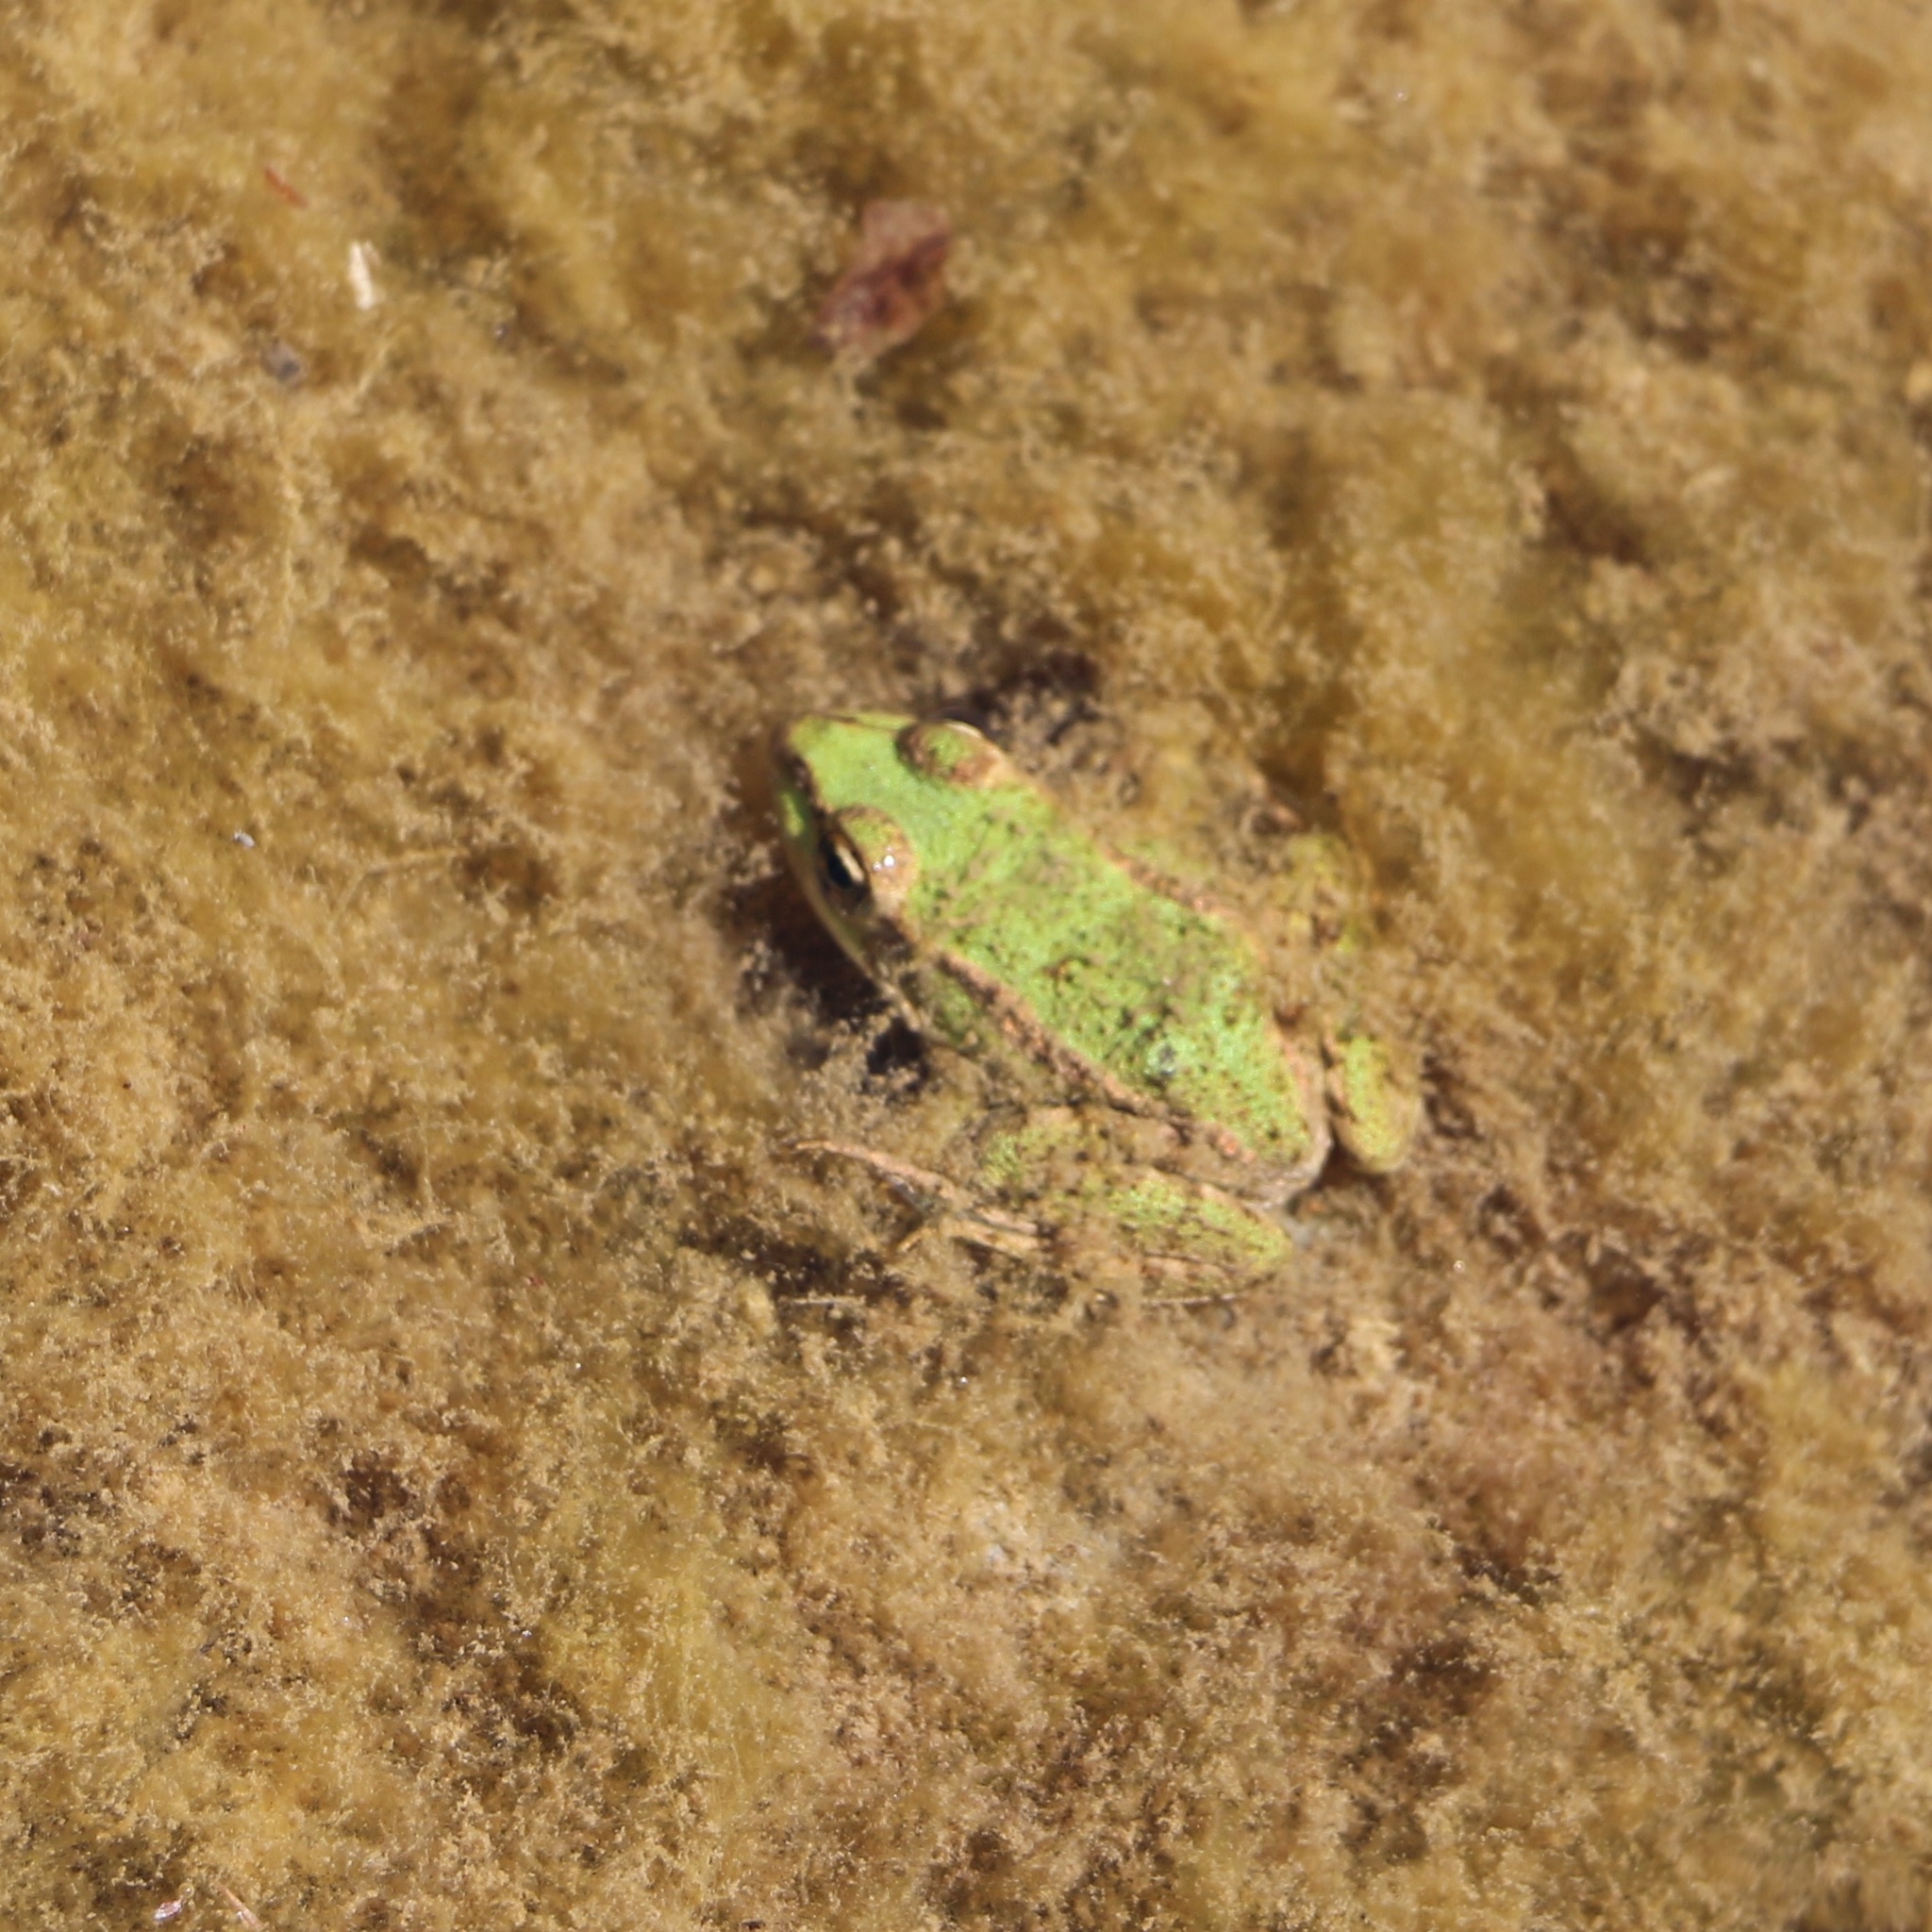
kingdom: Animalia
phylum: Chordata
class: Amphibia
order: Anura
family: Ranidae
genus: Pelophylax
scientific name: Pelophylax ridibundus
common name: Marsh frog
